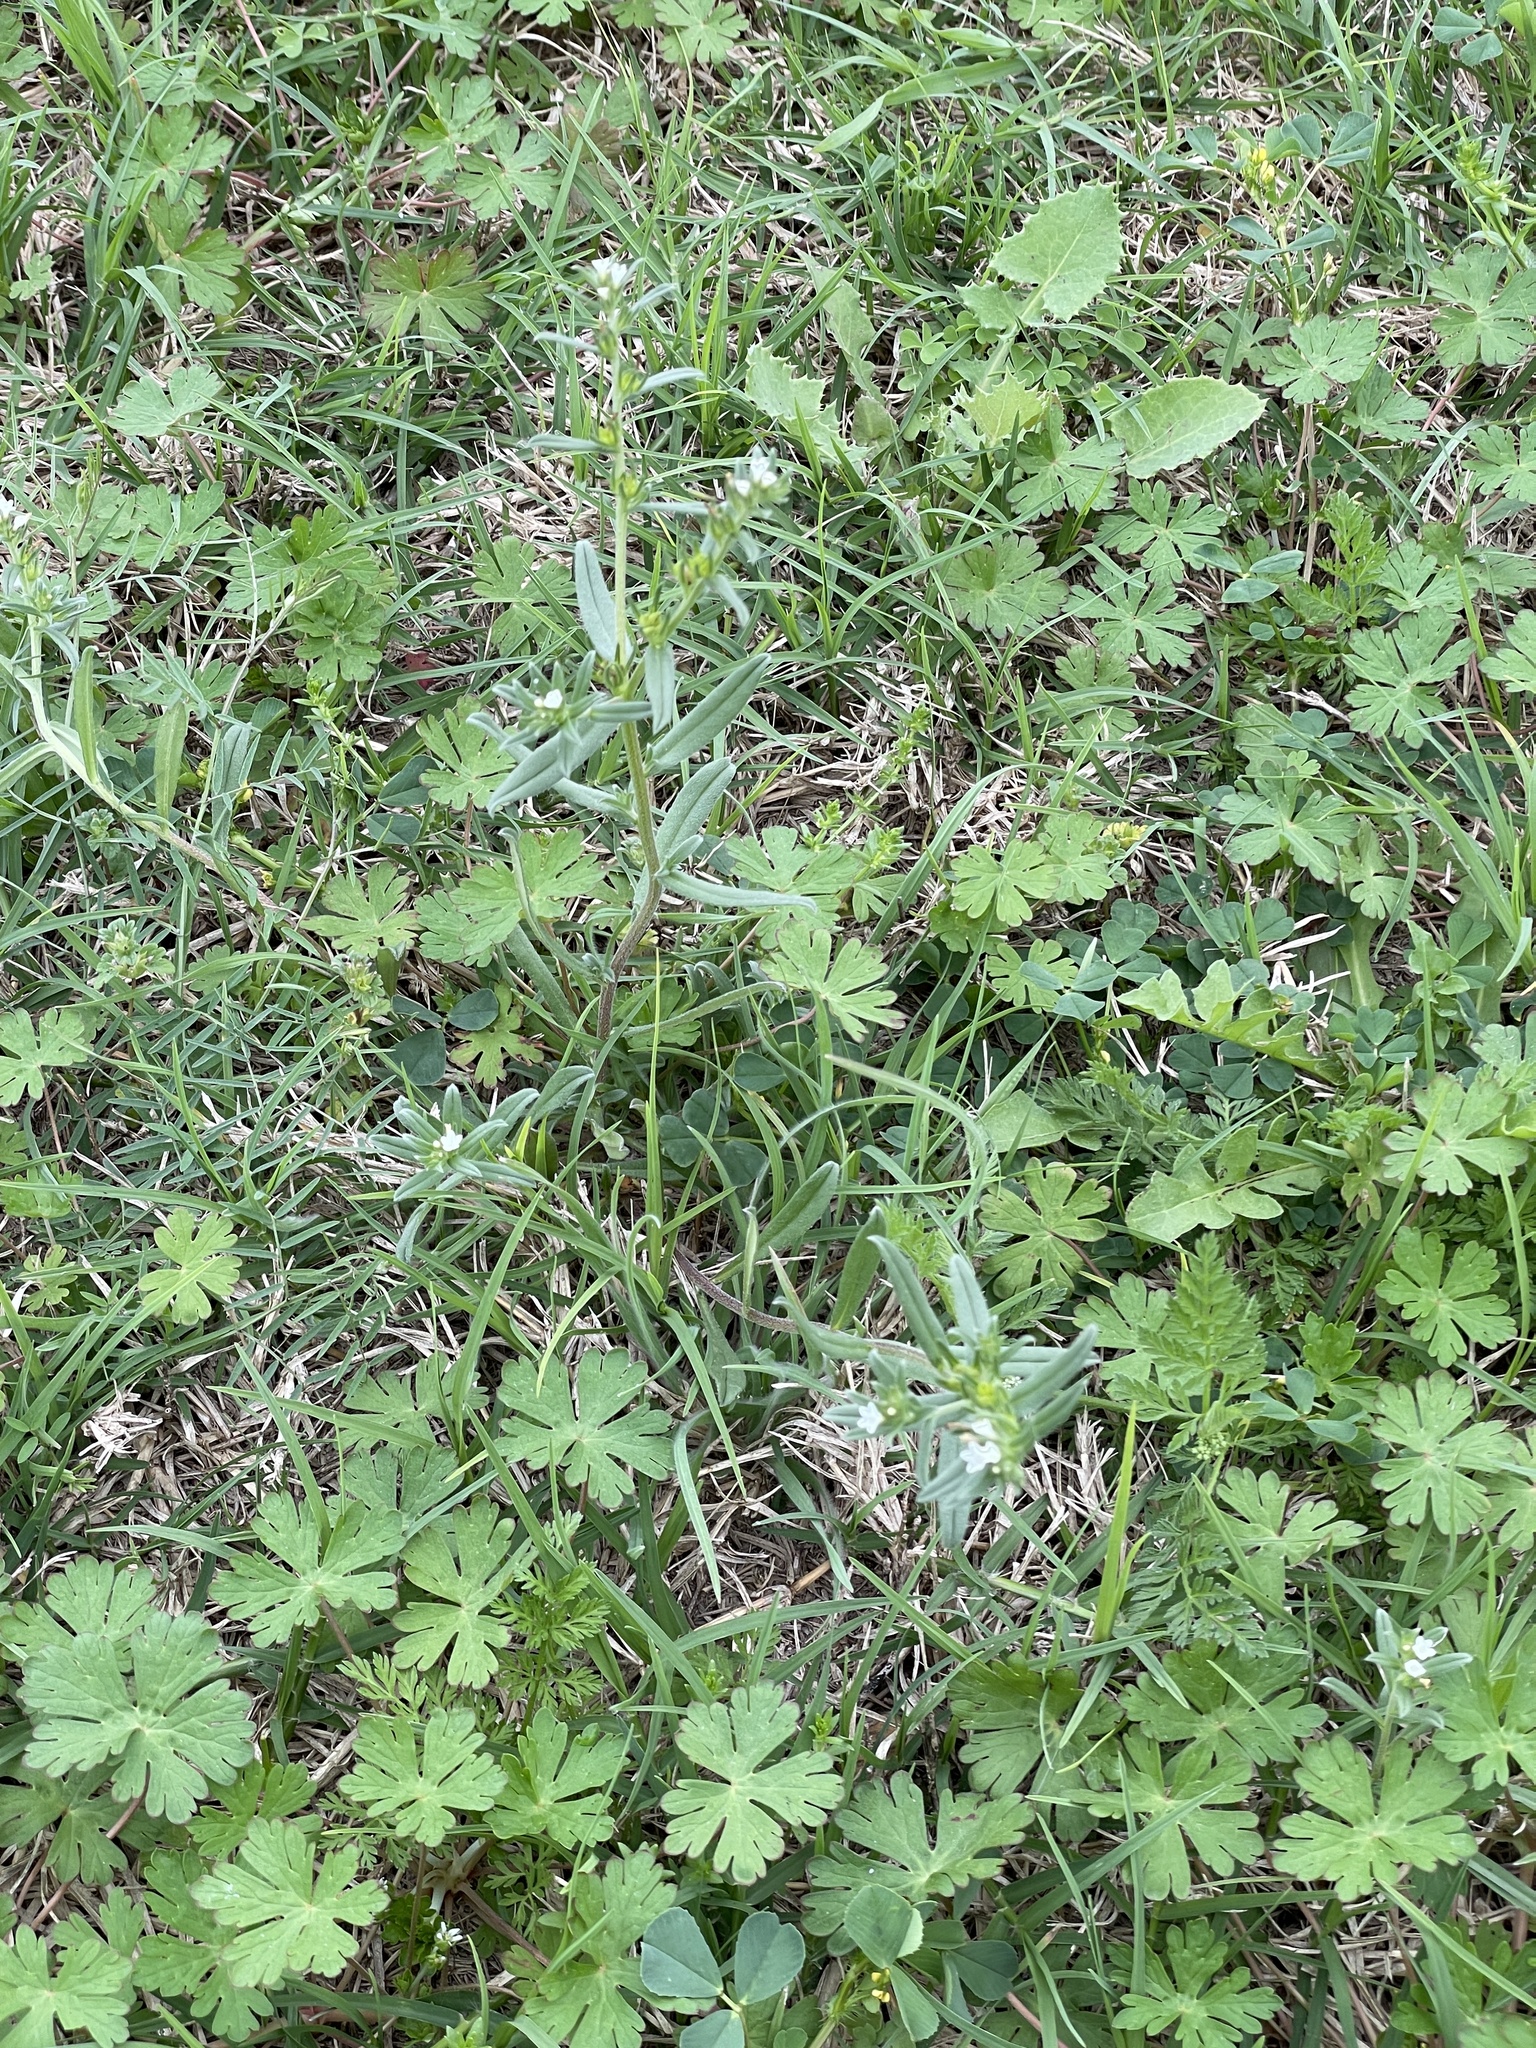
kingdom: Plantae
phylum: Tracheophyta
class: Magnoliopsida
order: Boraginales
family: Boraginaceae
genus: Buglossoides
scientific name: Buglossoides arvensis
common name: Corn gromwell
